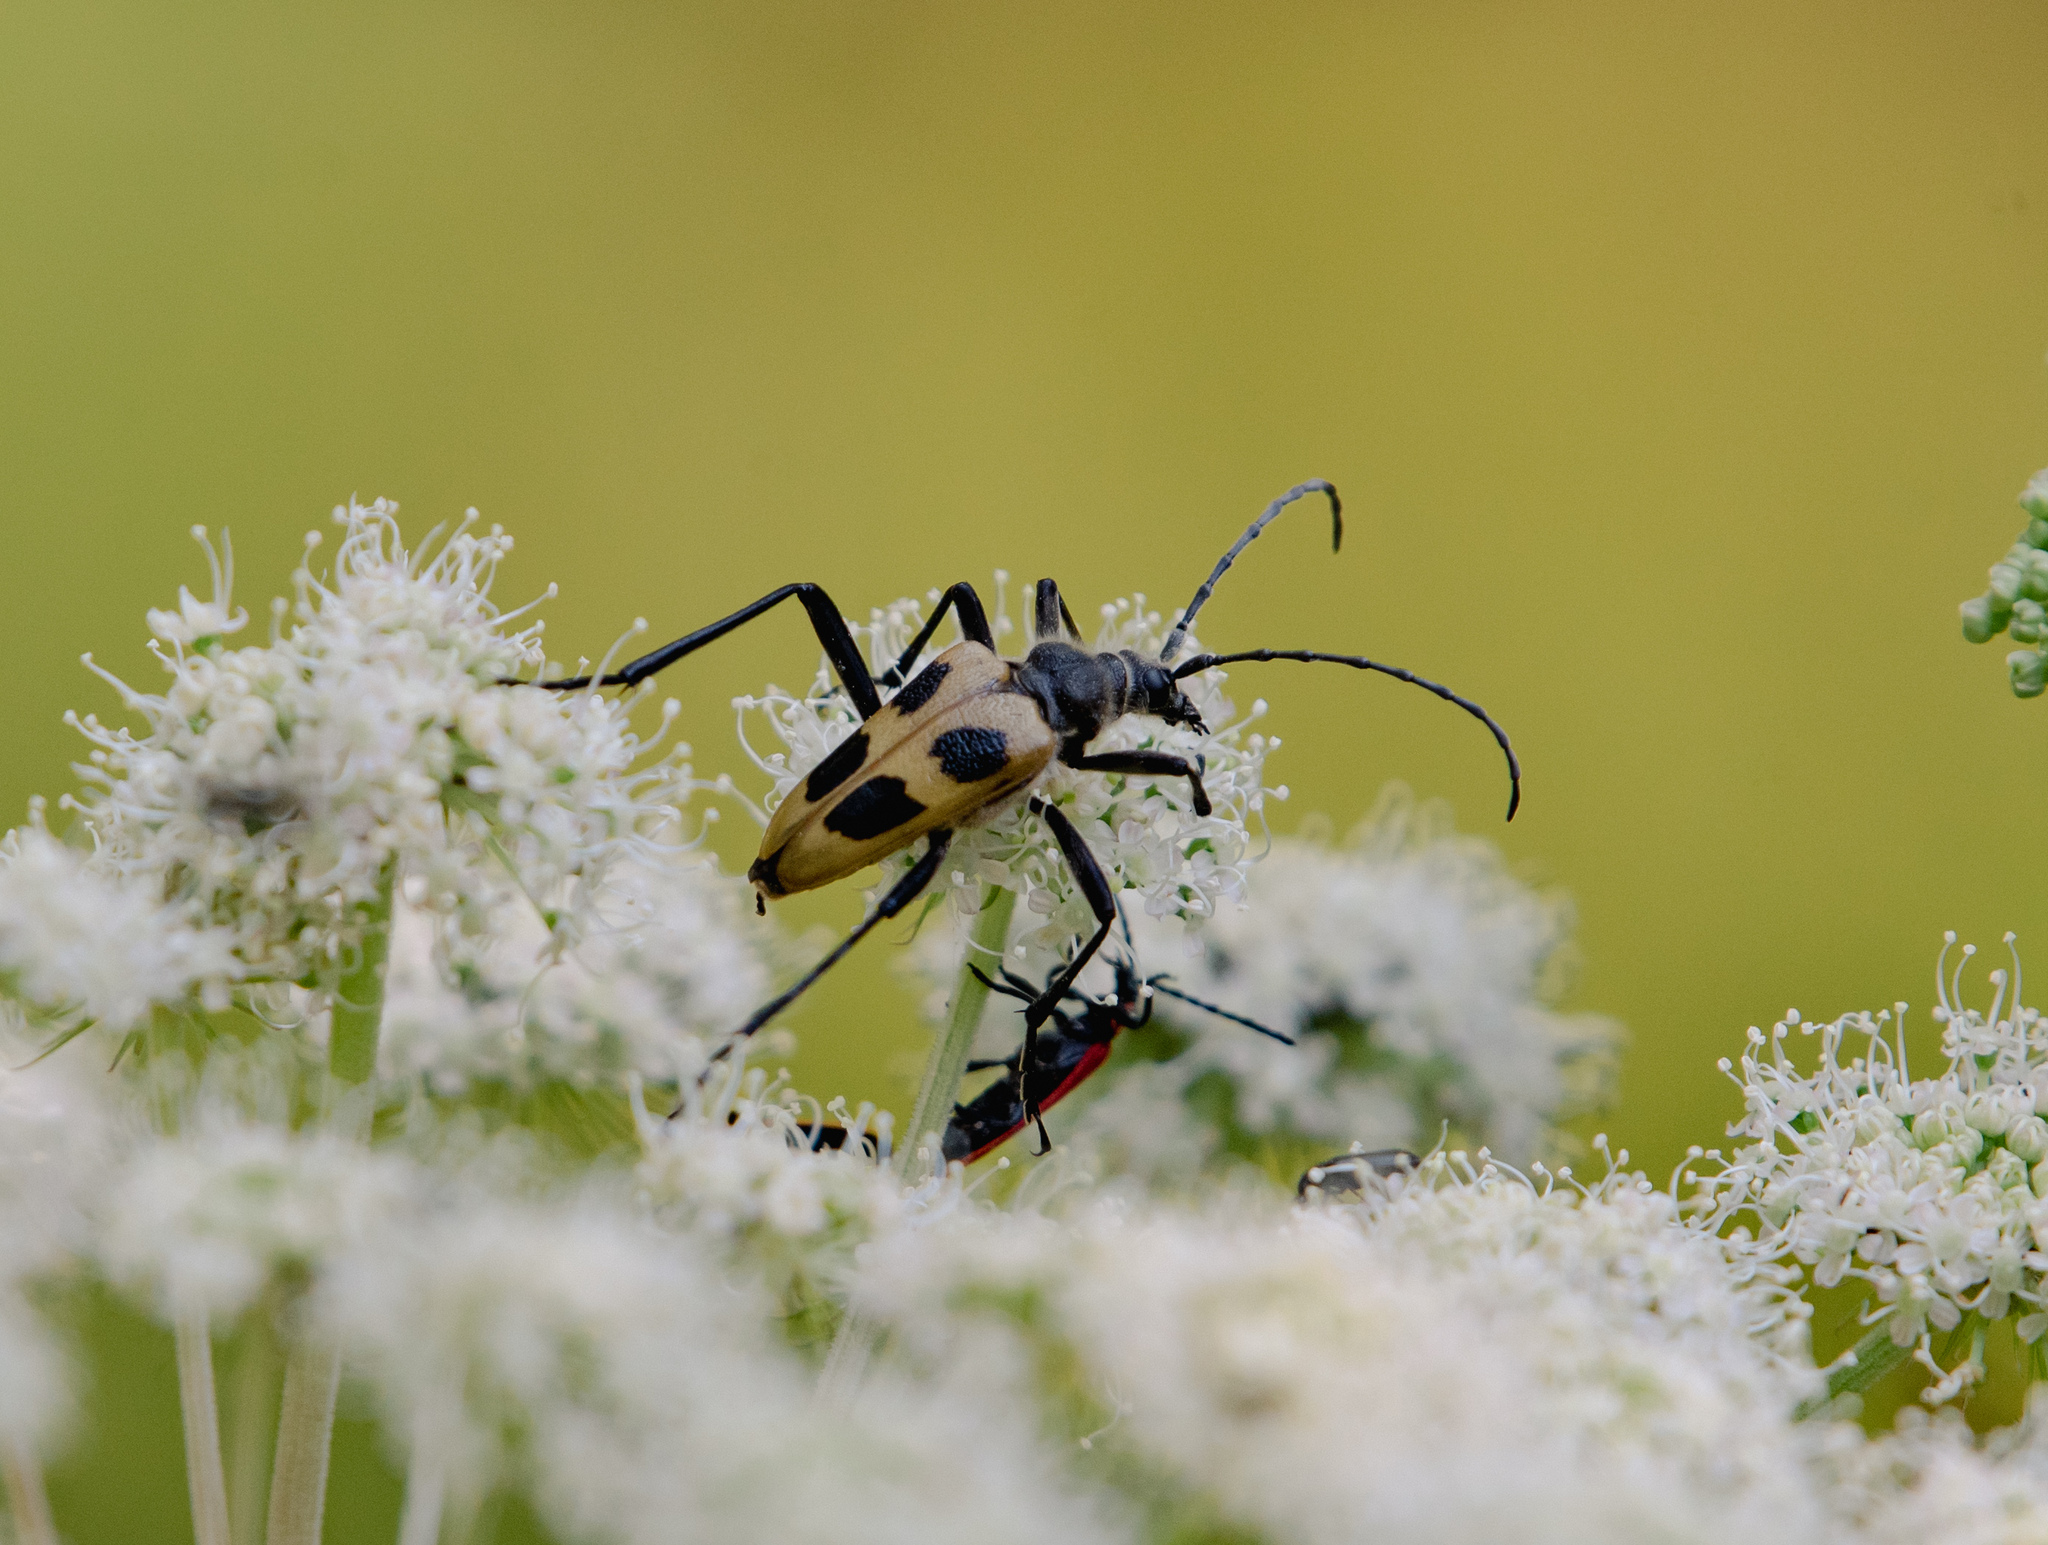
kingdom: Animalia
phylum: Arthropoda
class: Insecta
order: Coleoptera
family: Cerambycidae
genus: Pachyta
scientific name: Pachyta quadrimaculata
